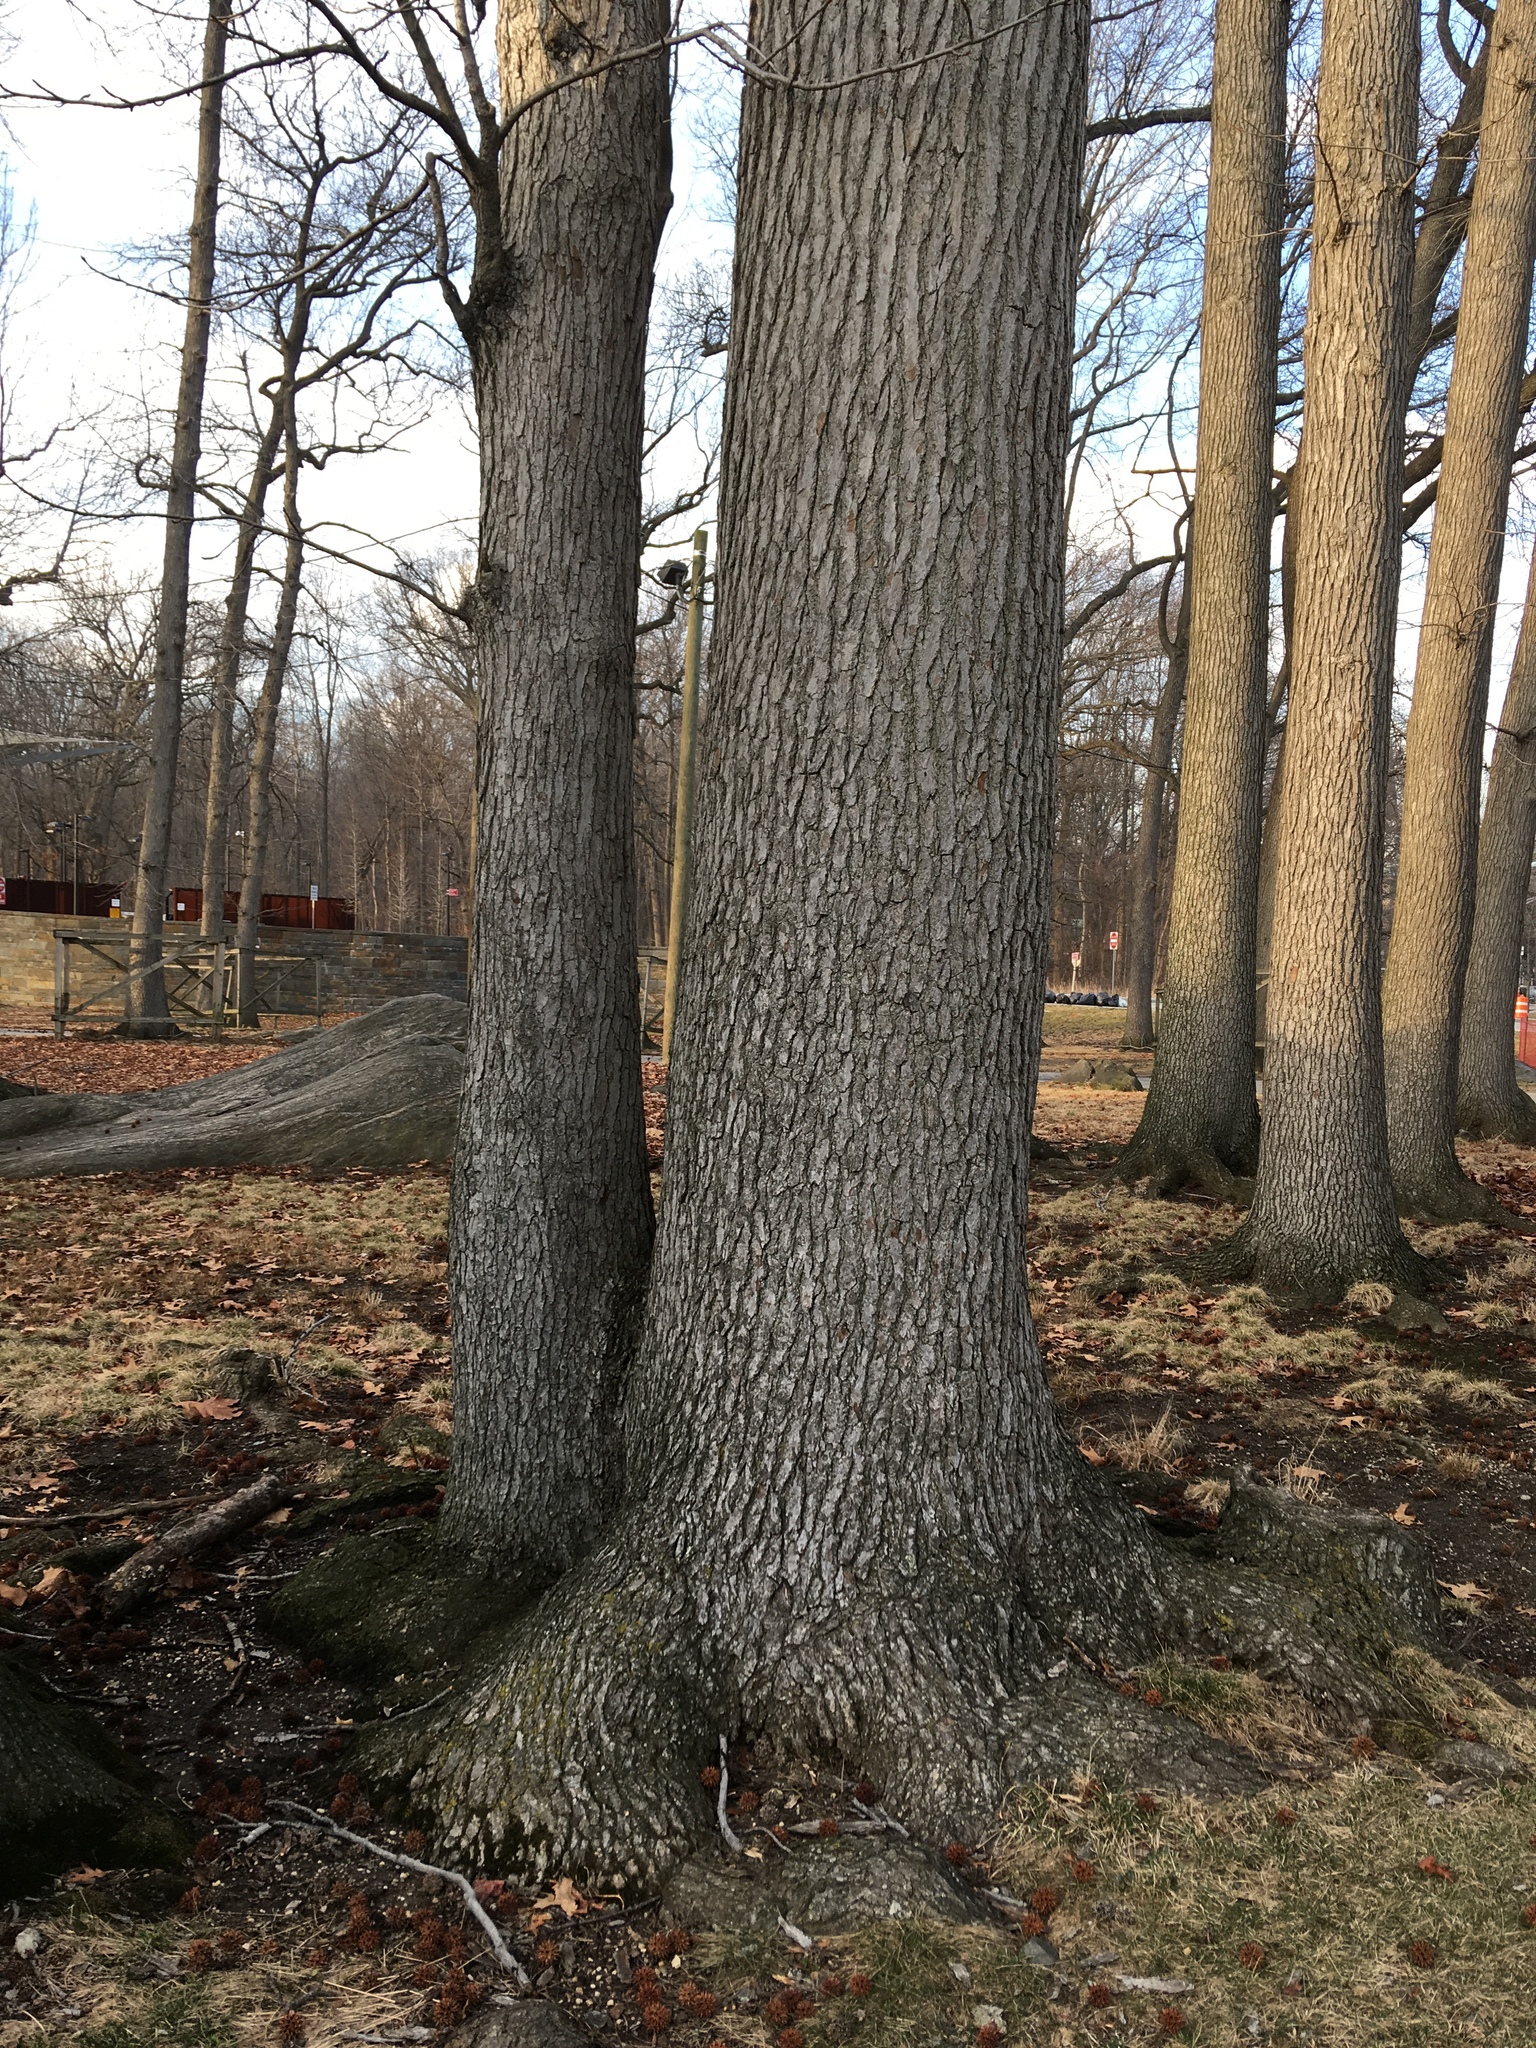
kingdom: Plantae
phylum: Tracheophyta
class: Magnoliopsida
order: Saxifragales
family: Altingiaceae
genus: Liquidambar
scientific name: Liquidambar styraciflua
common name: Sweet gum
